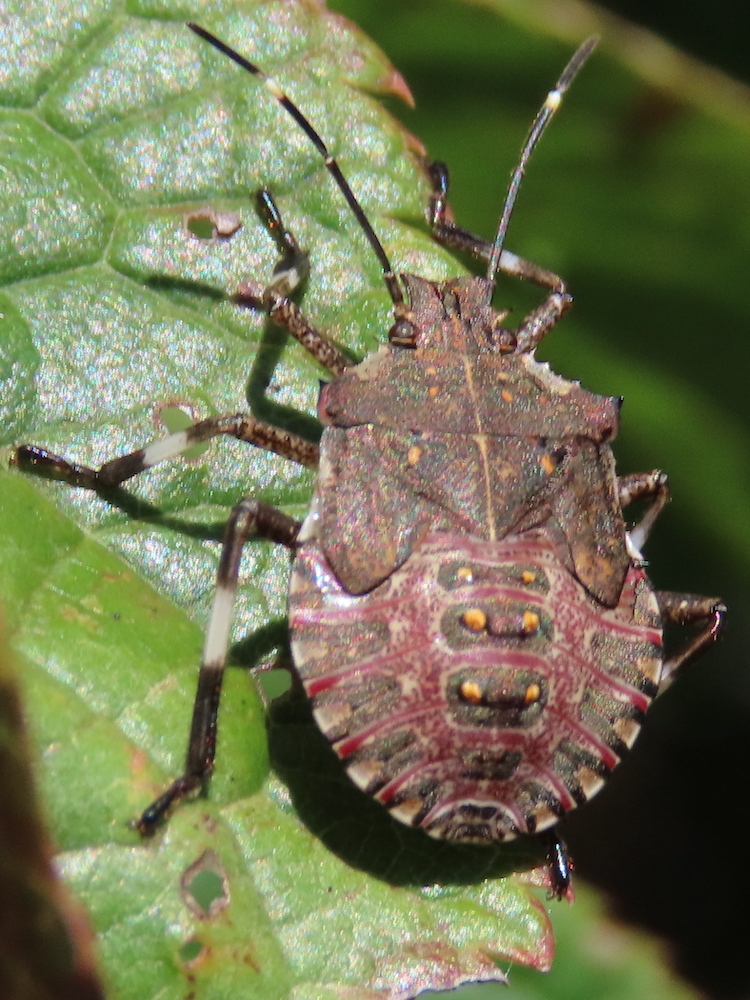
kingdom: Animalia
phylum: Arthropoda
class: Insecta
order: Hemiptera
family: Pentatomidae
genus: Halyomorpha
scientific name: Halyomorpha halys
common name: Brown marmorated stink bug
